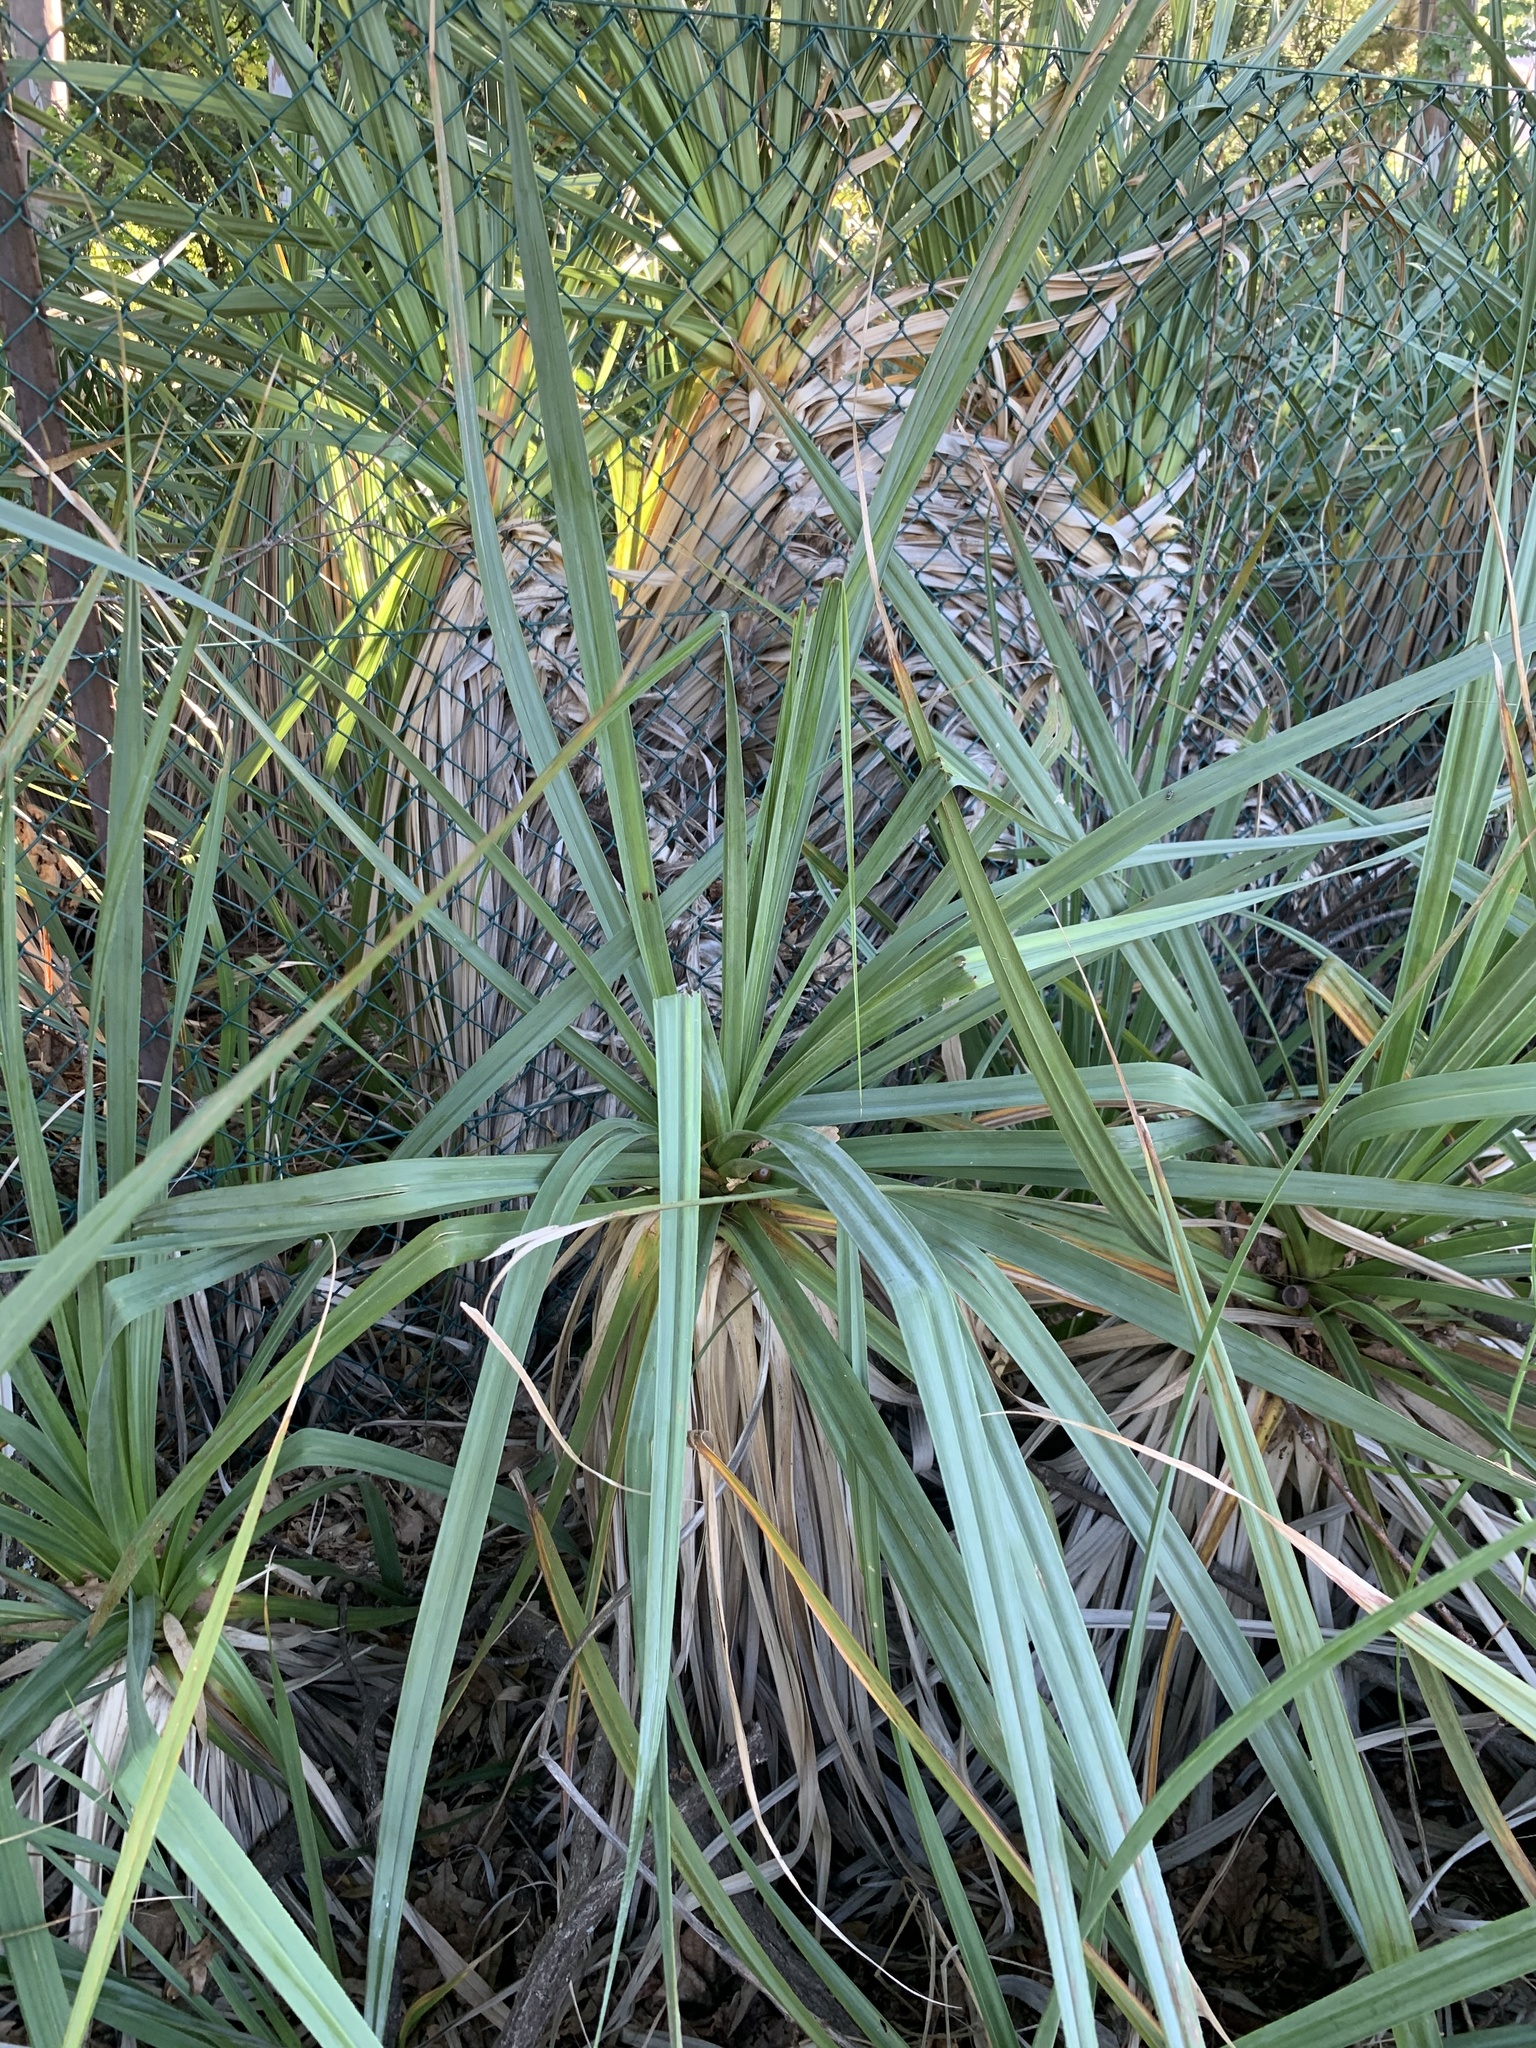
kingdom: Plantae
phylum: Tracheophyta
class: Liliopsida
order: Poales
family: Thurniaceae
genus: Prionium
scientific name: Prionium serratum
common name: Palmiet
